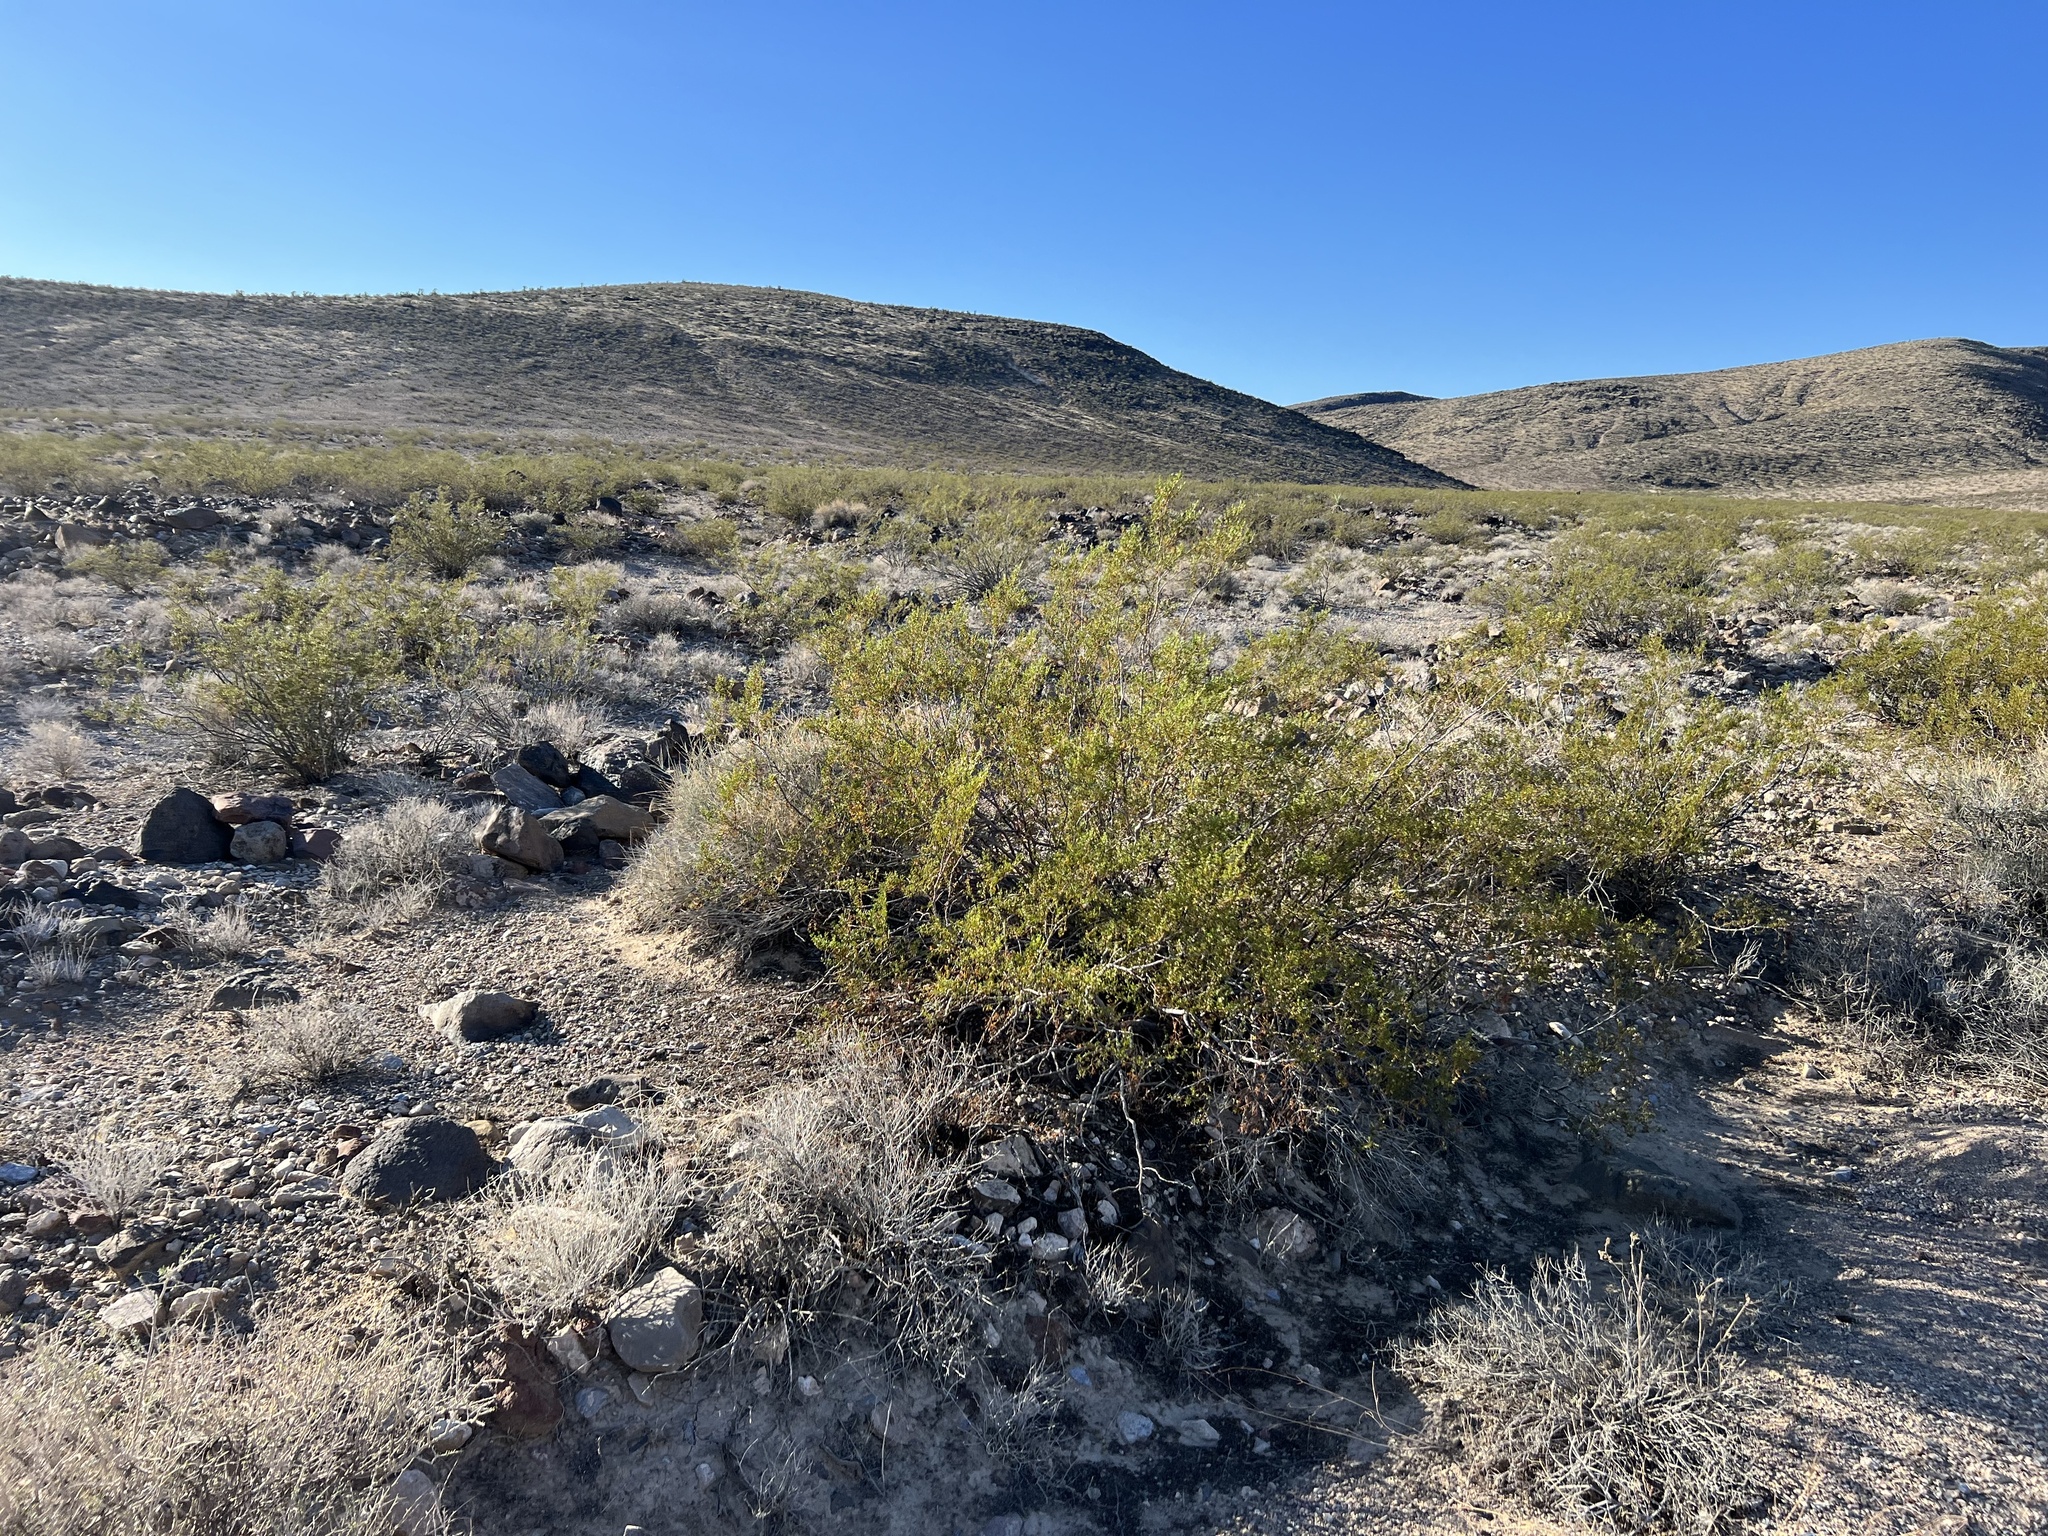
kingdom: Plantae
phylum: Tracheophyta
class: Magnoliopsida
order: Zygophyllales
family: Zygophyllaceae
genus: Larrea
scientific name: Larrea tridentata
